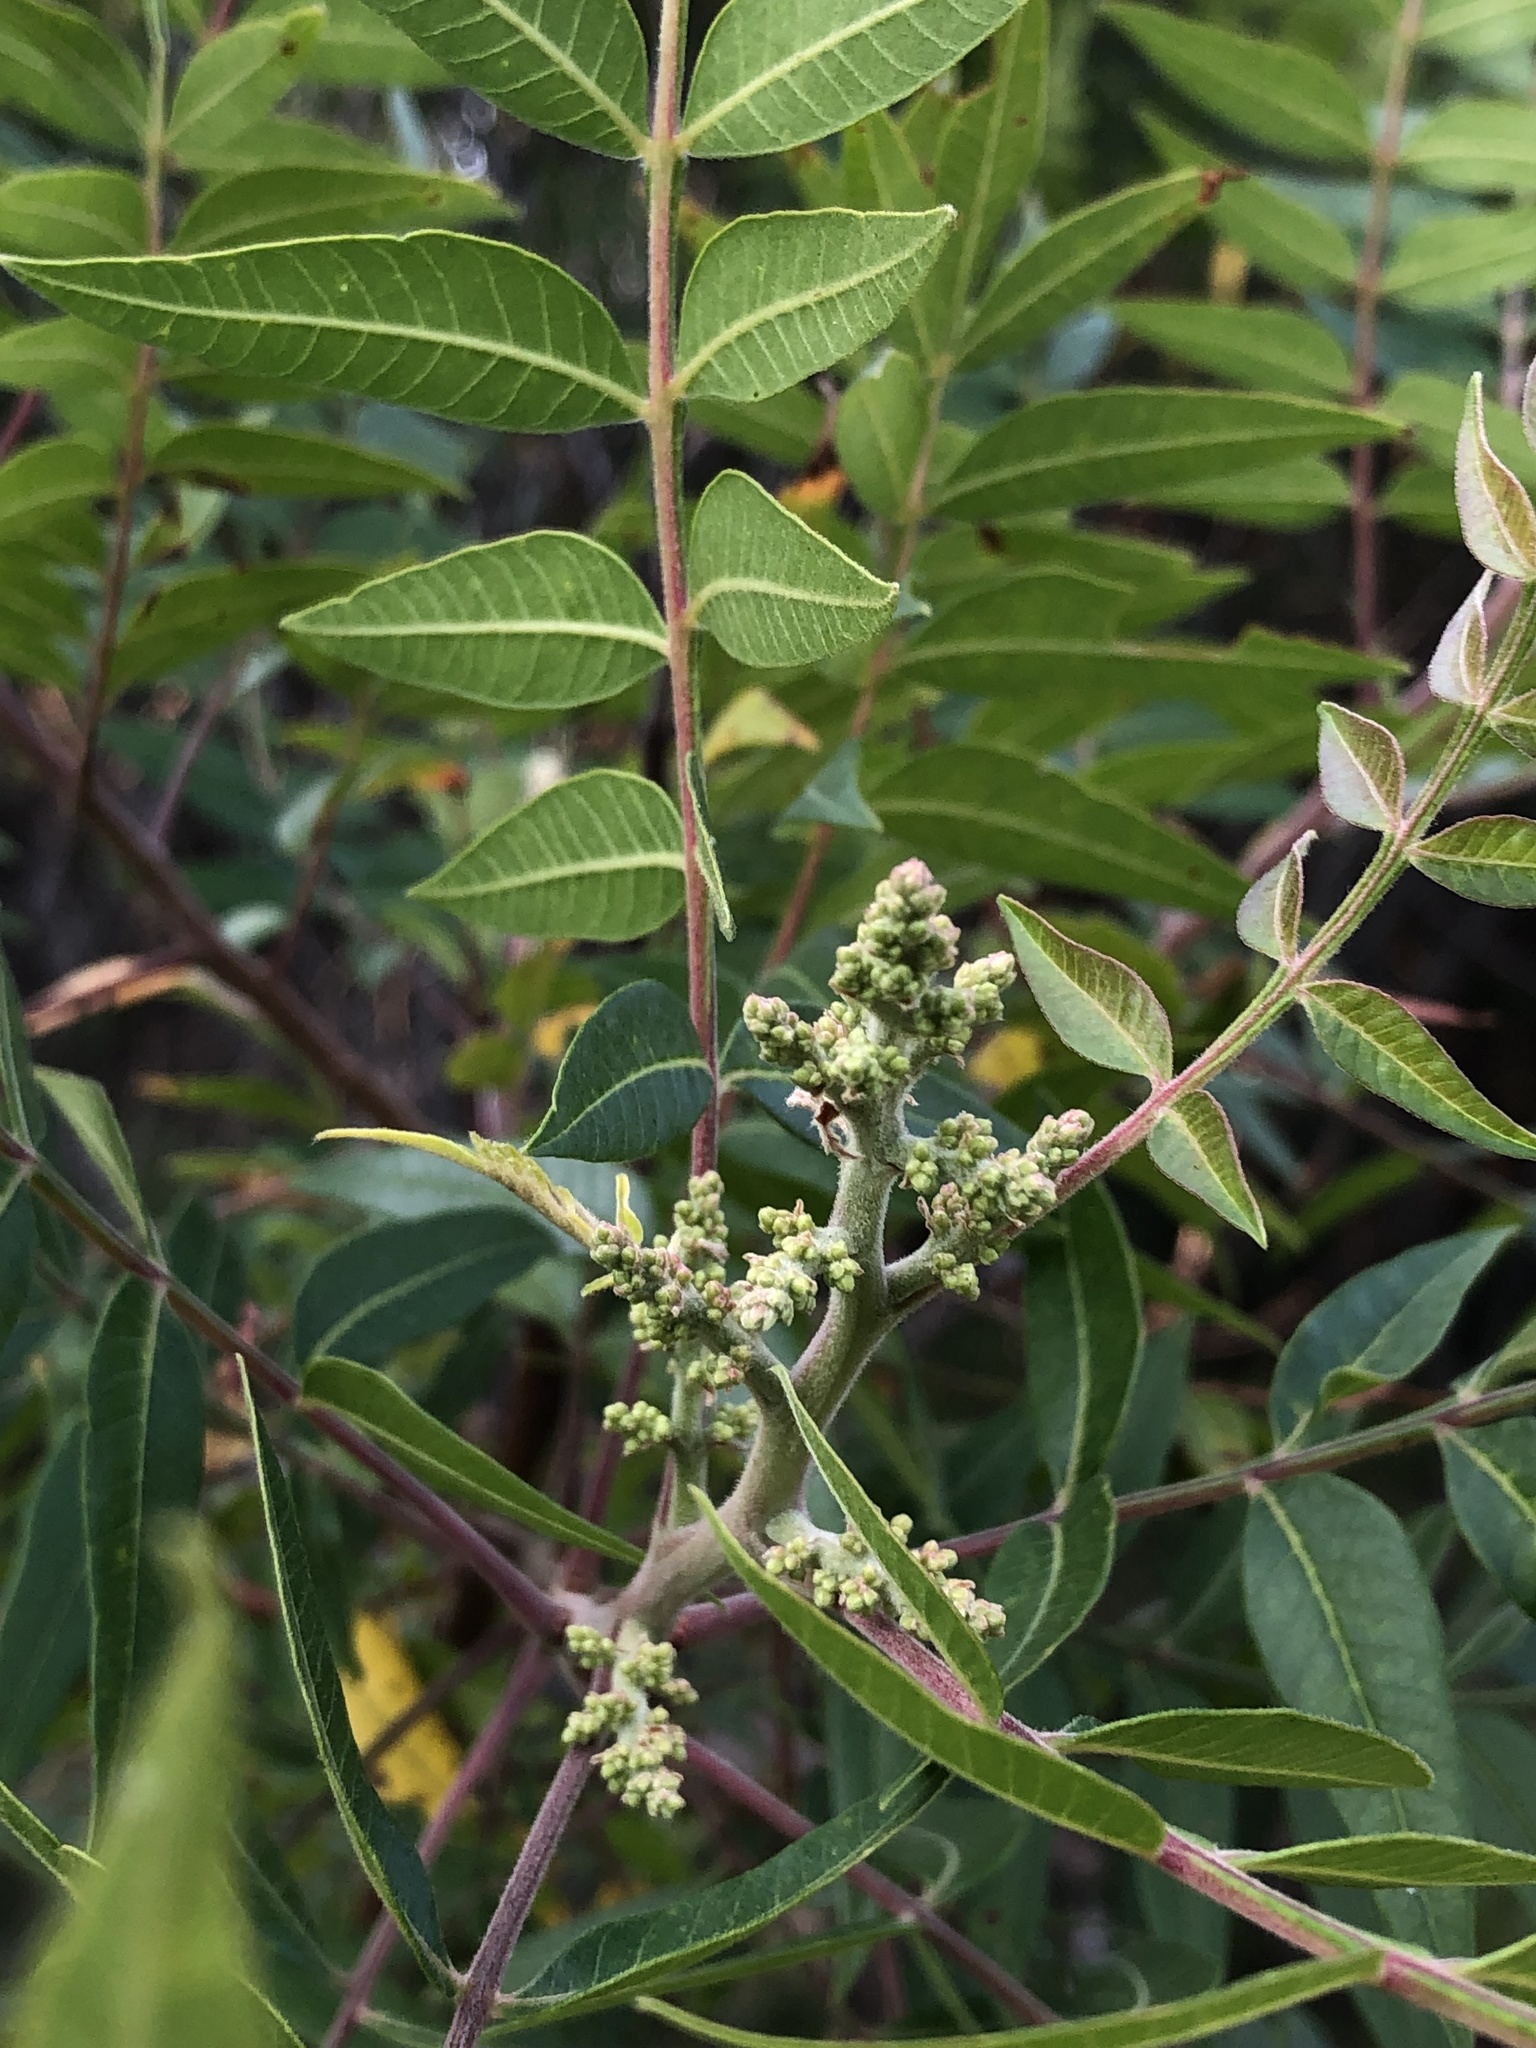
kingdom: Plantae
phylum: Tracheophyta
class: Magnoliopsida
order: Sapindales
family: Anacardiaceae
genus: Rhus
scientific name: Rhus lanceolata
